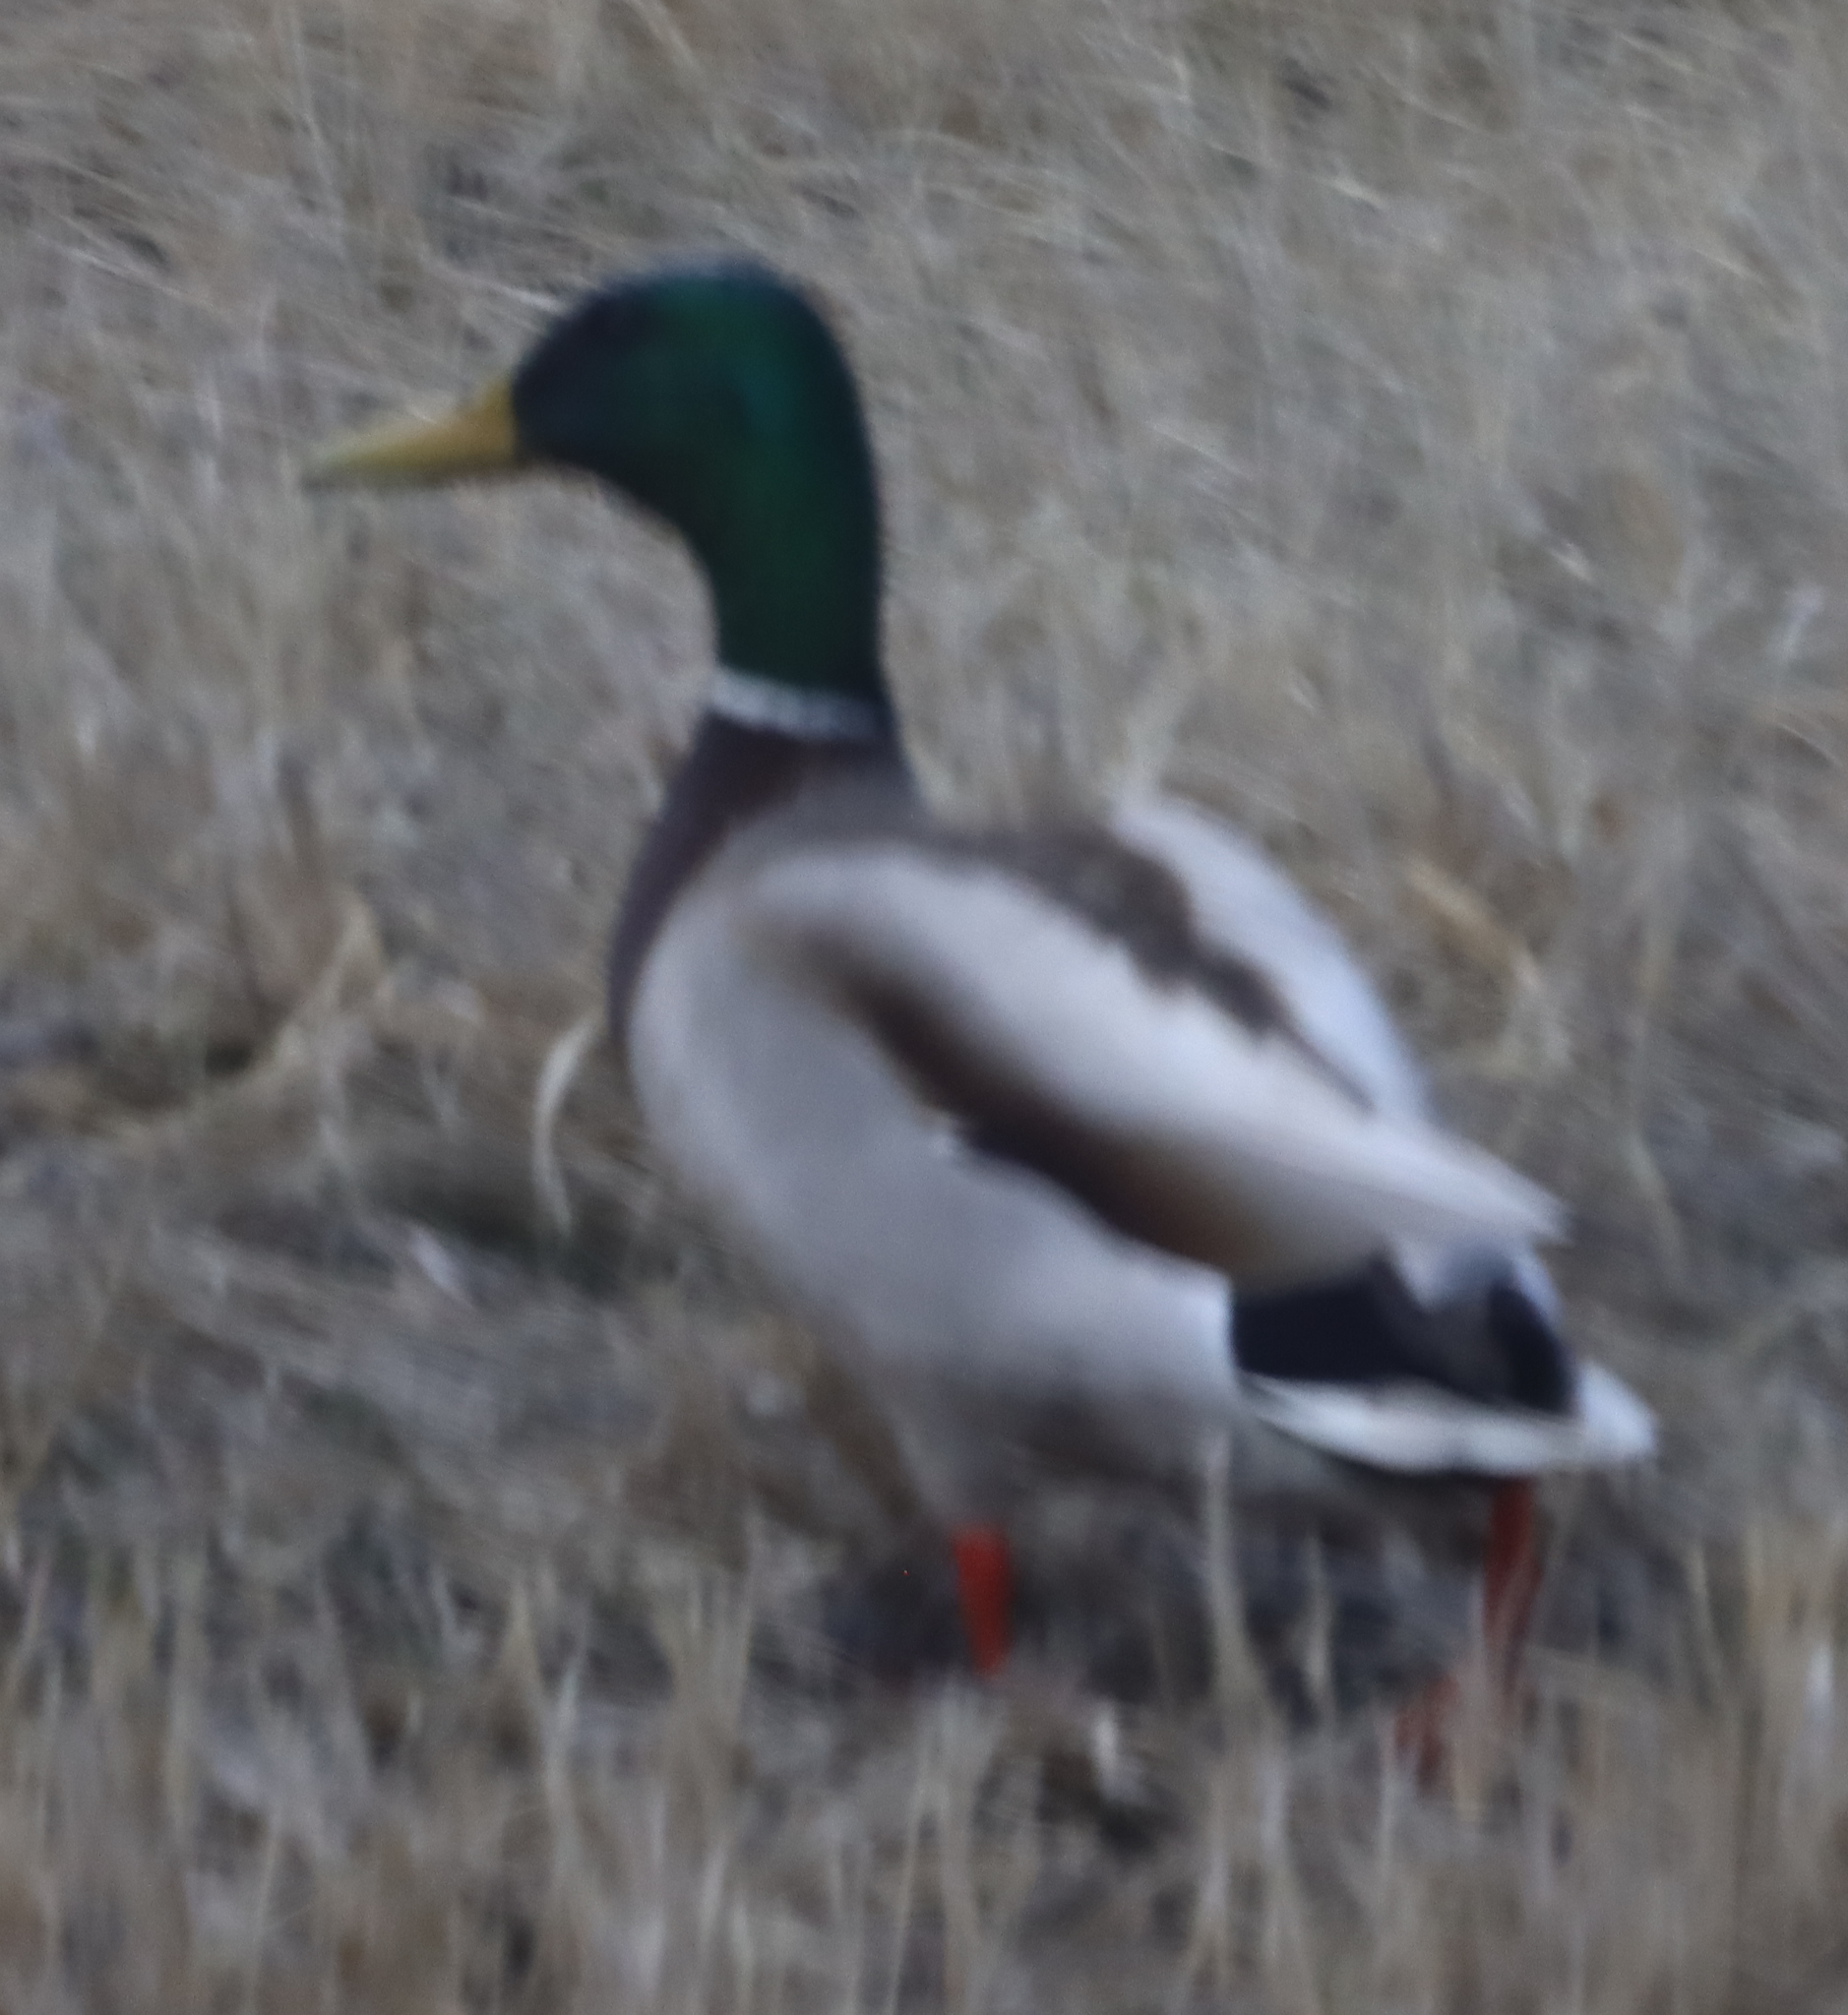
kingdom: Animalia
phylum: Chordata
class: Aves
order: Anseriformes
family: Anatidae
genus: Anas
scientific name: Anas platyrhynchos
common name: Mallard
